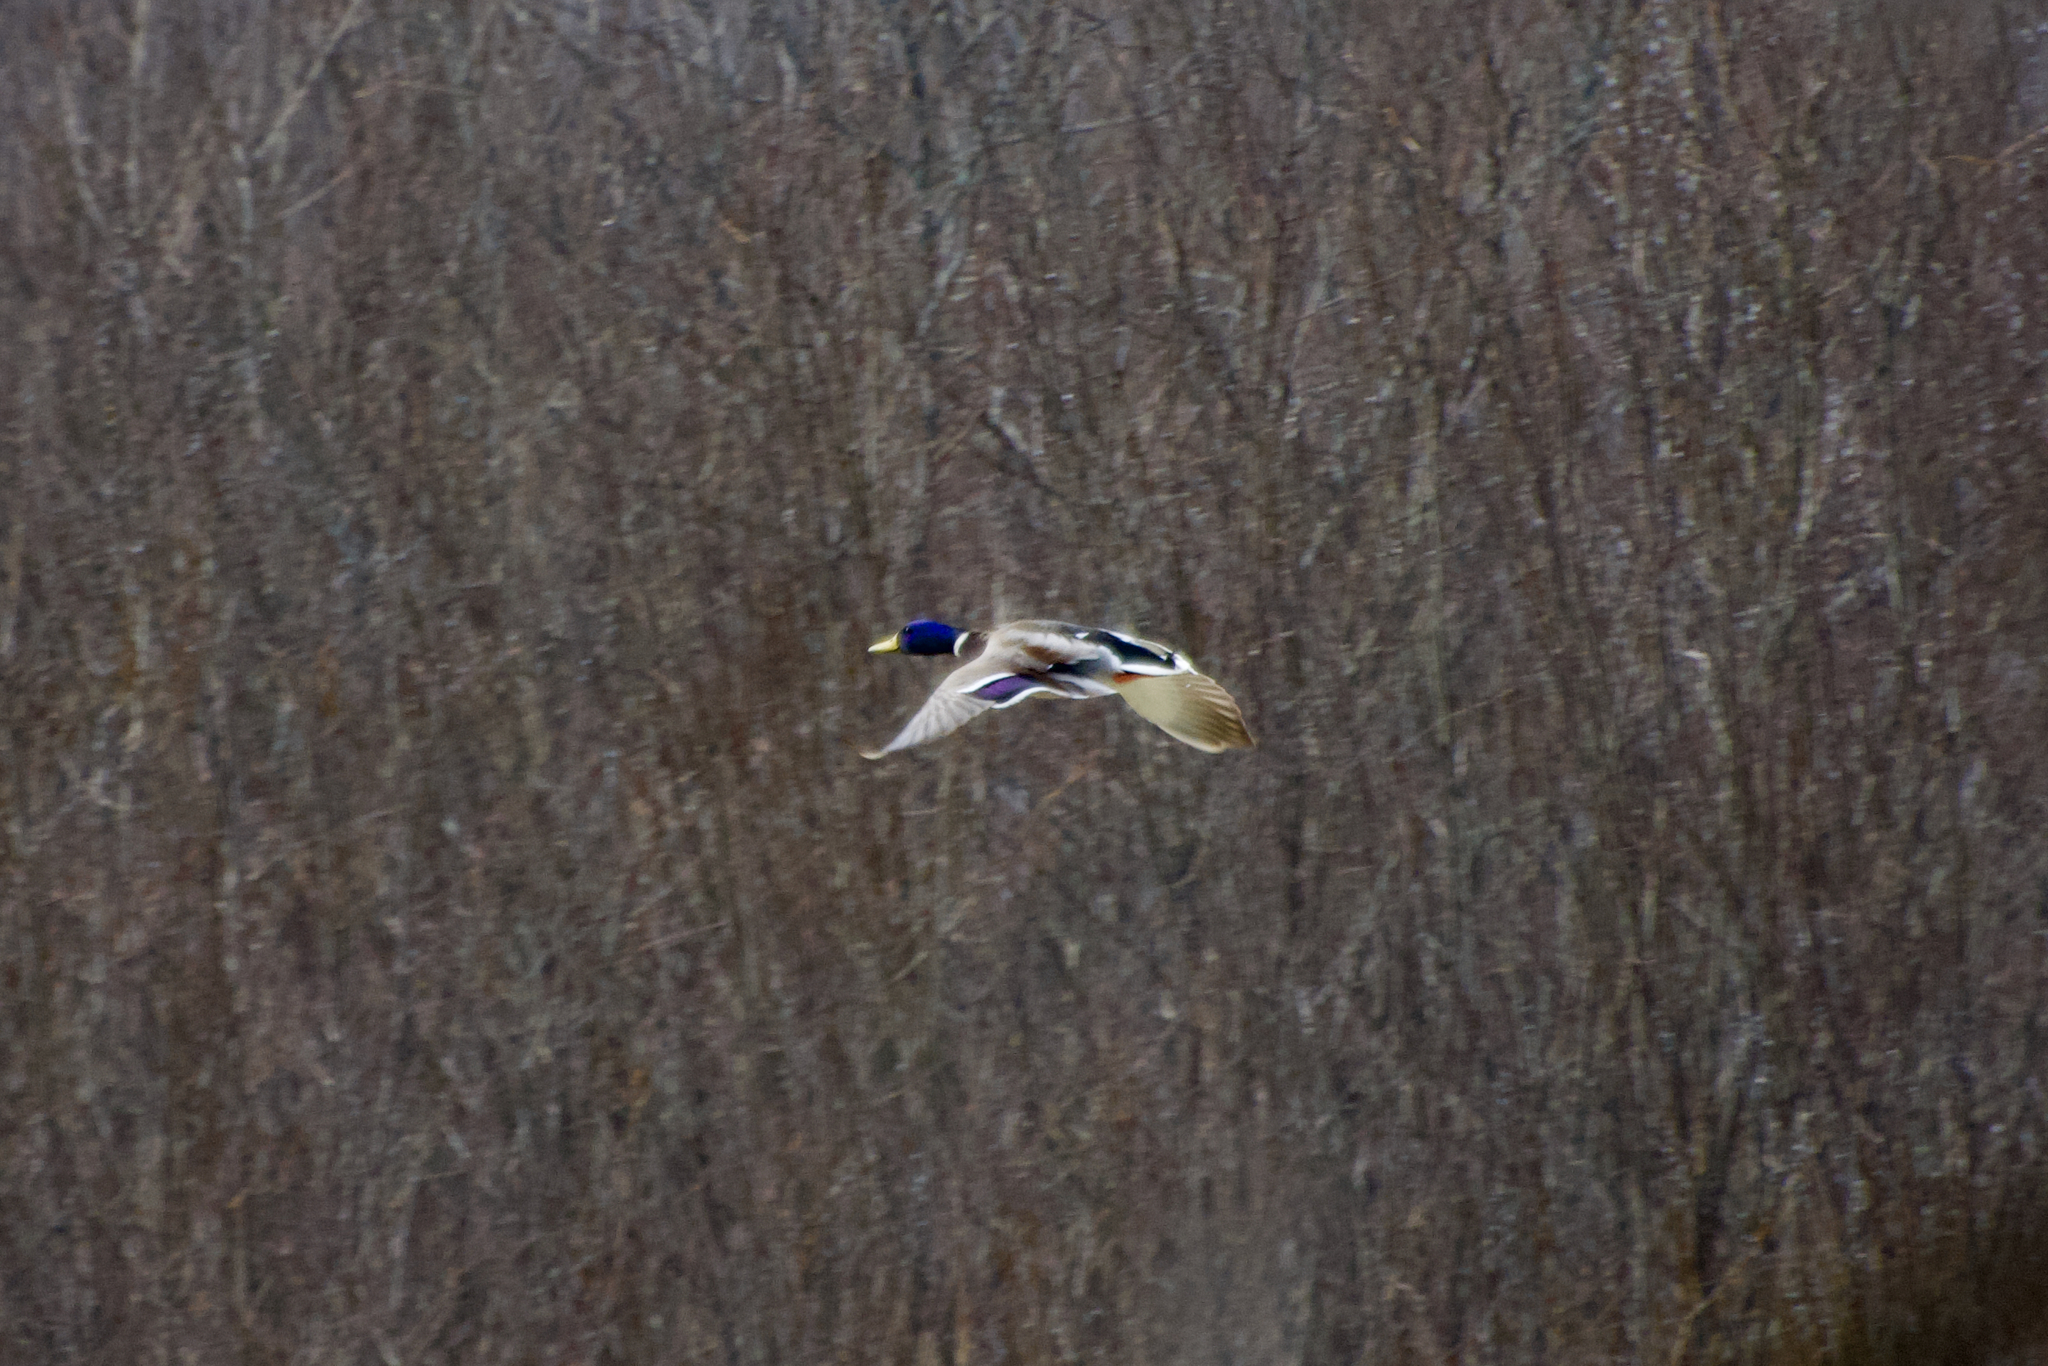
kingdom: Animalia
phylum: Chordata
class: Aves
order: Anseriformes
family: Anatidae
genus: Anas
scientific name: Anas platyrhynchos
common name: Mallard
